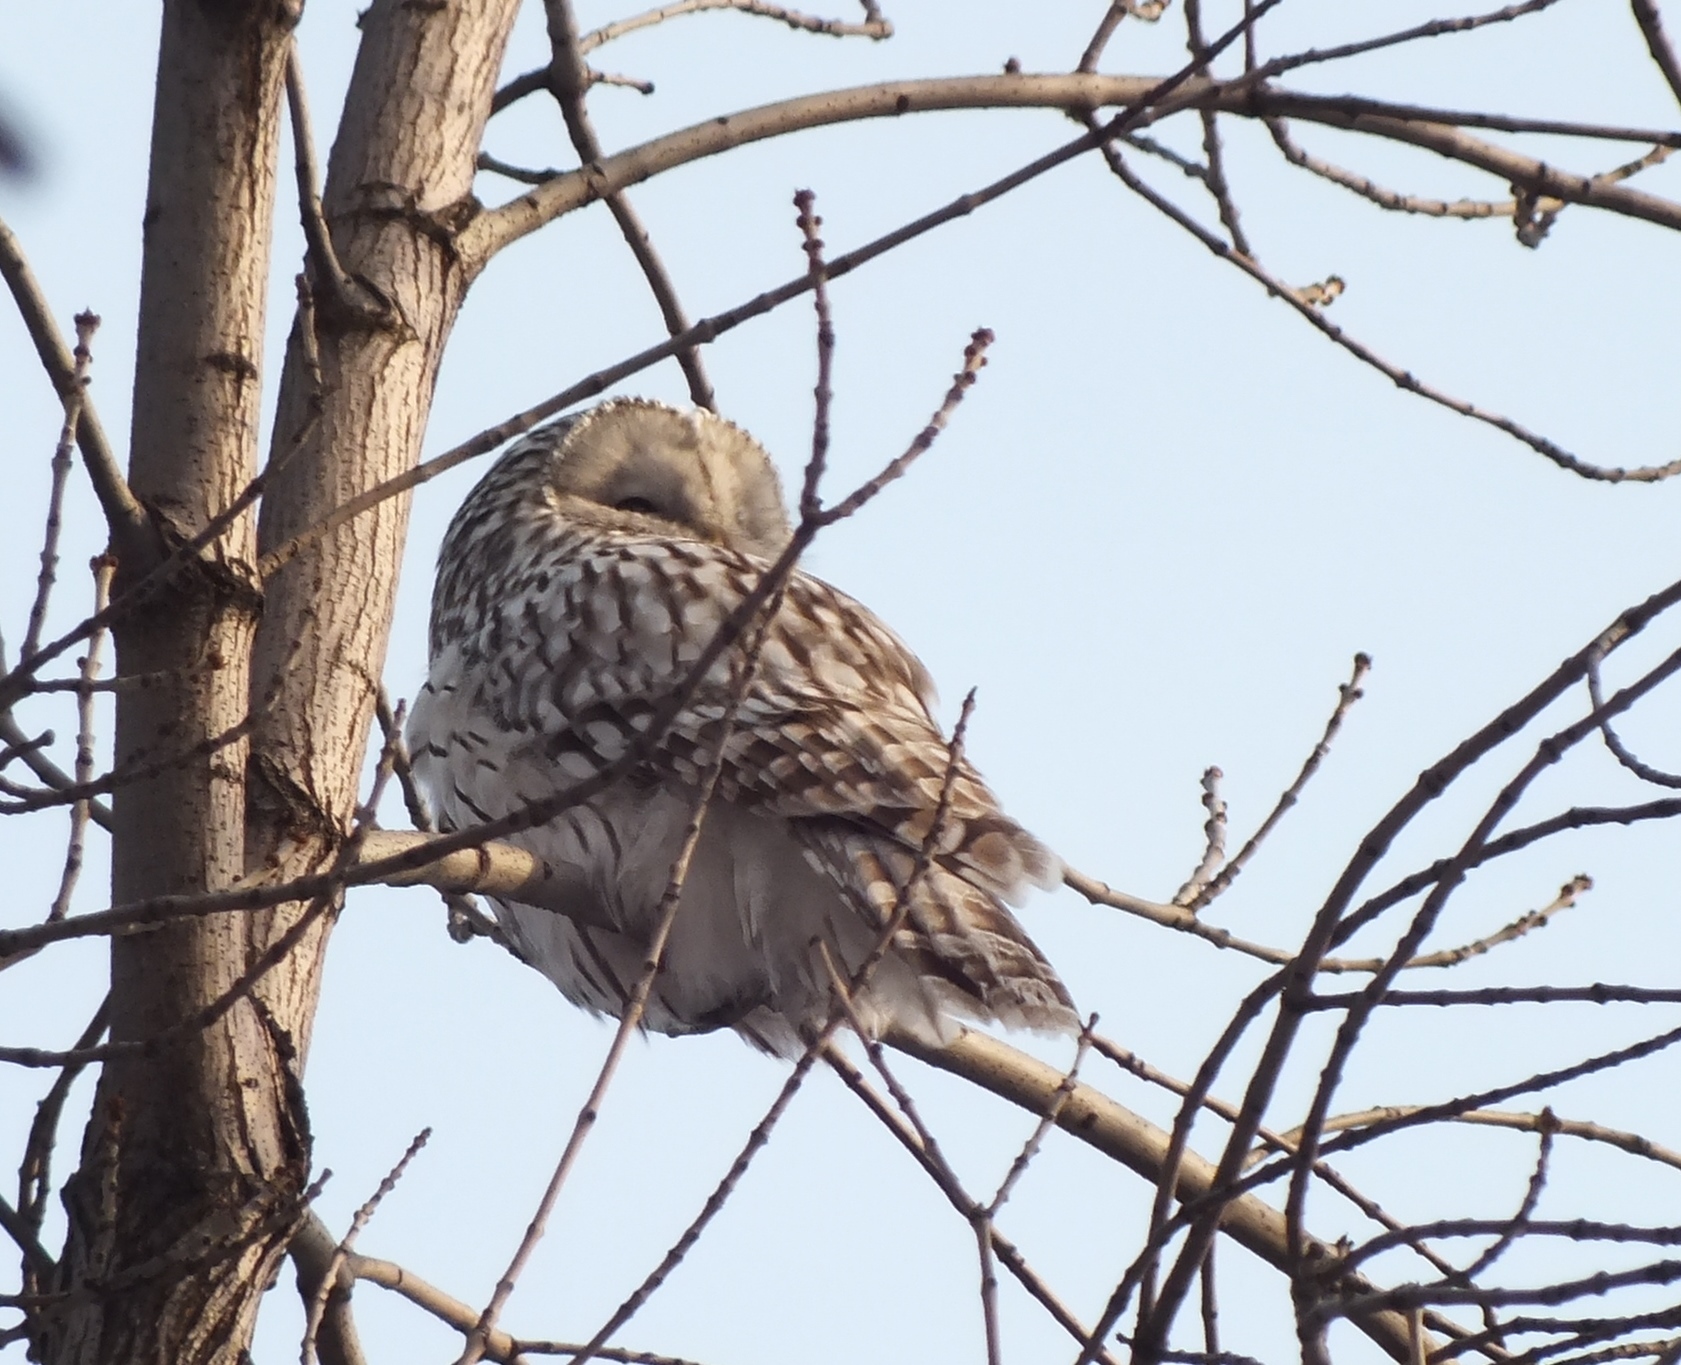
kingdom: Animalia
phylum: Chordata
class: Aves
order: Strigiformes
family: Strigidae
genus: Strix
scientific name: Strix uralensis
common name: Ural owl
